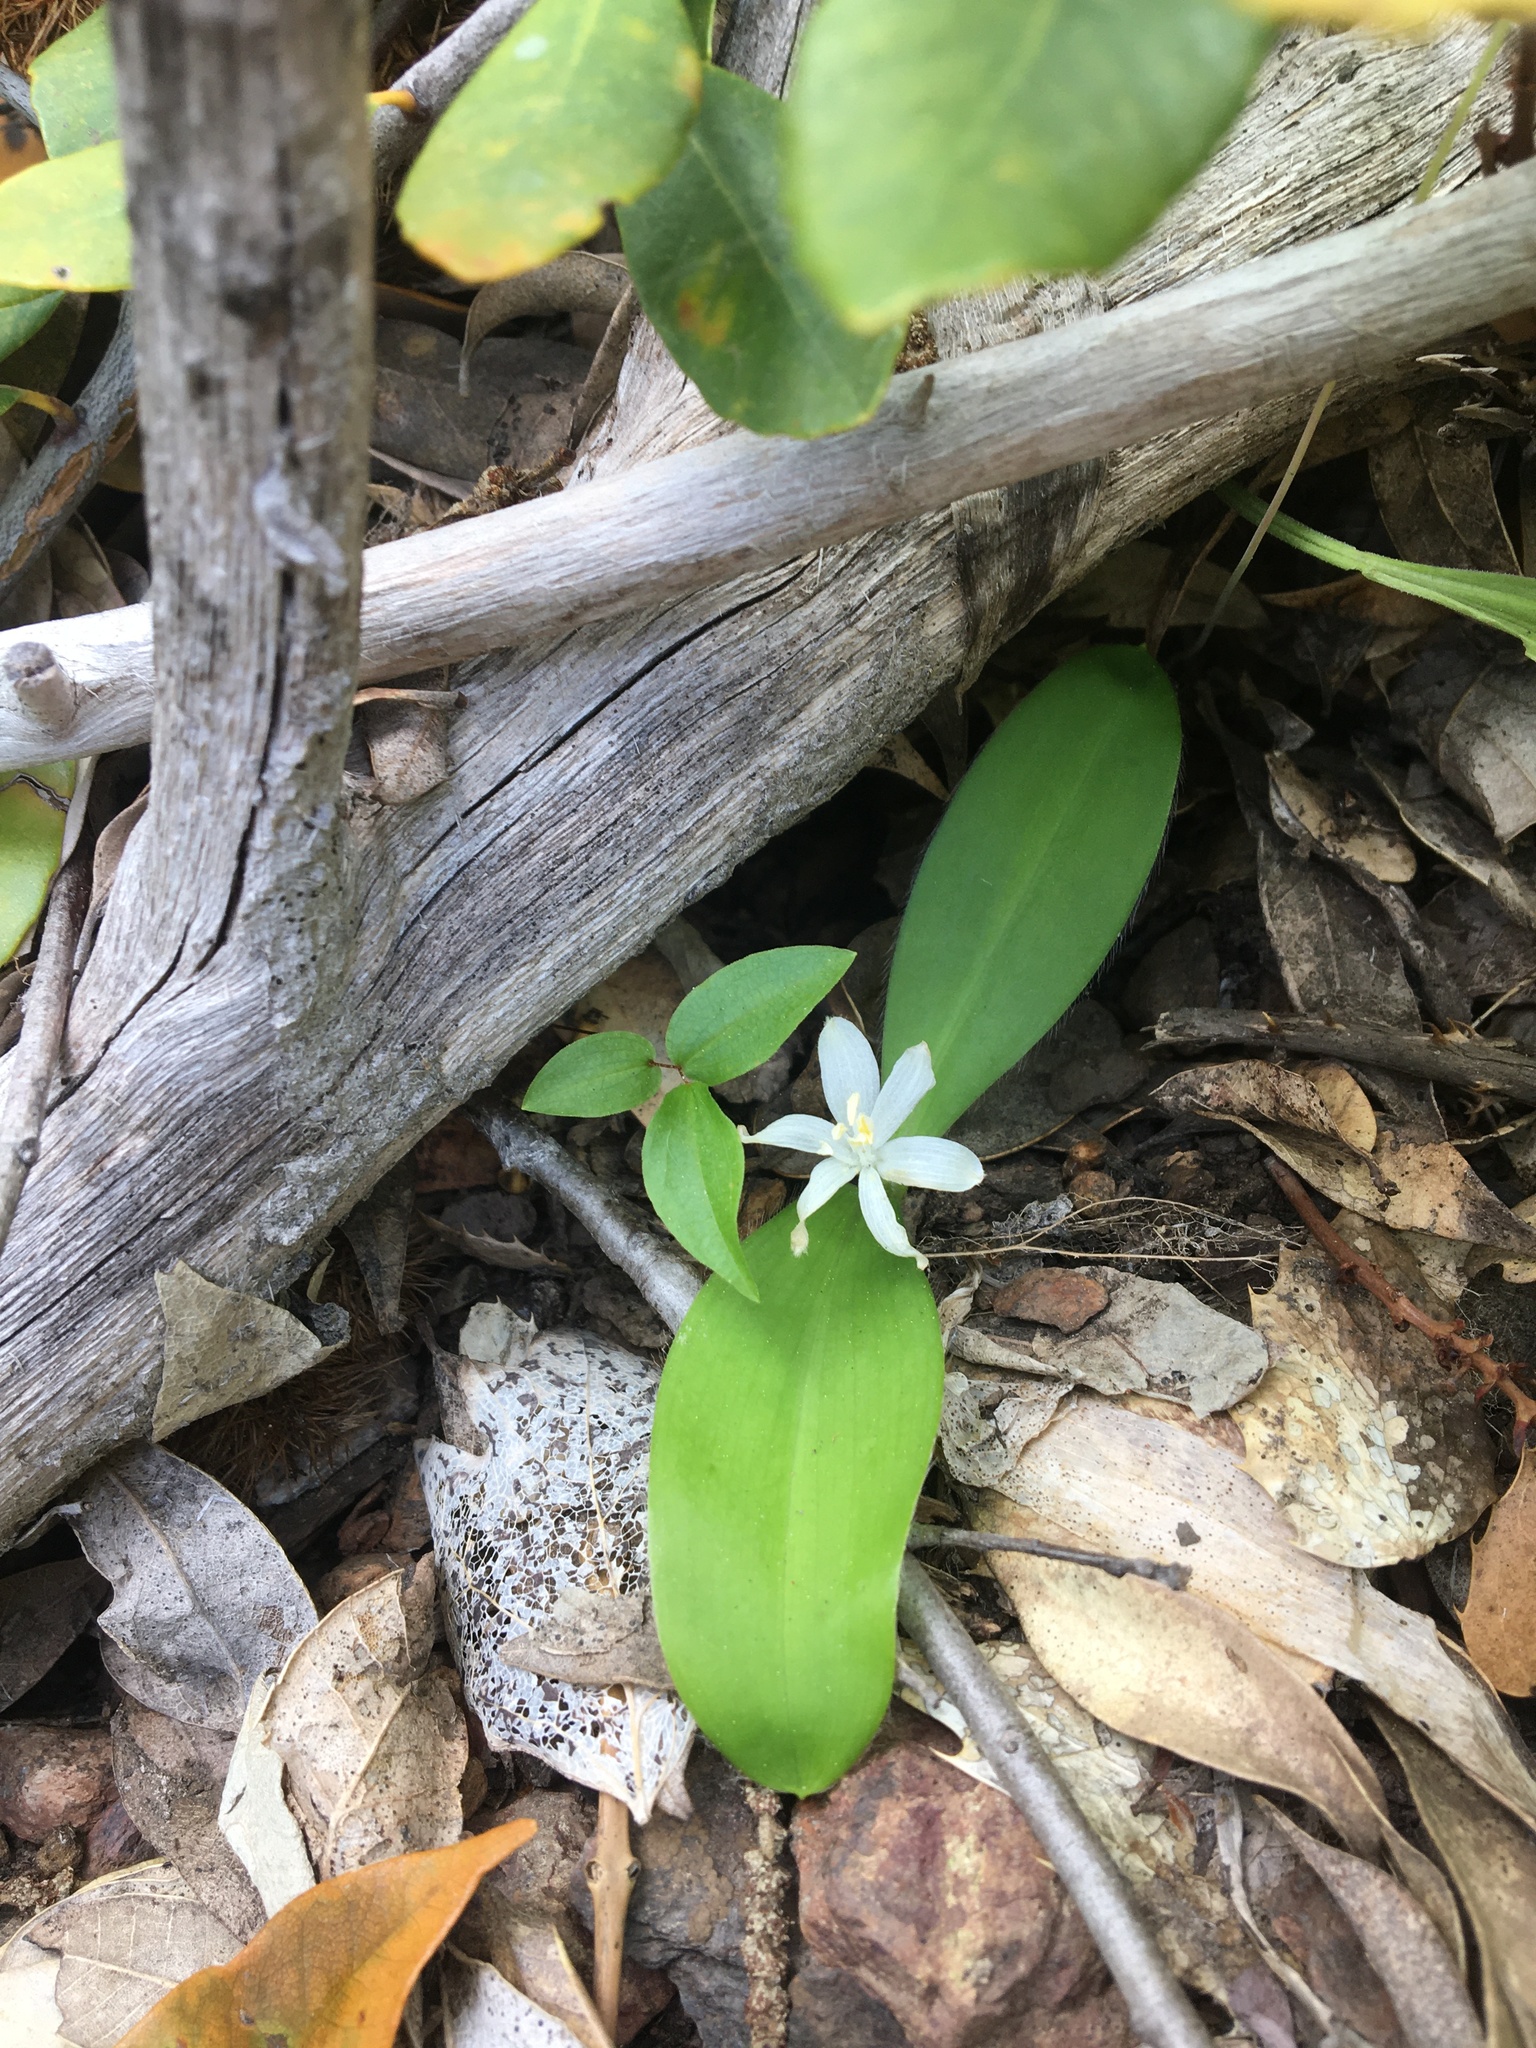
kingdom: Plantae
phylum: Tracheophyta
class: Liliopsida
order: Liliales
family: Liliaceae
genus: Clintonia
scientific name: Clintonia uniflora
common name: Queen's cup
